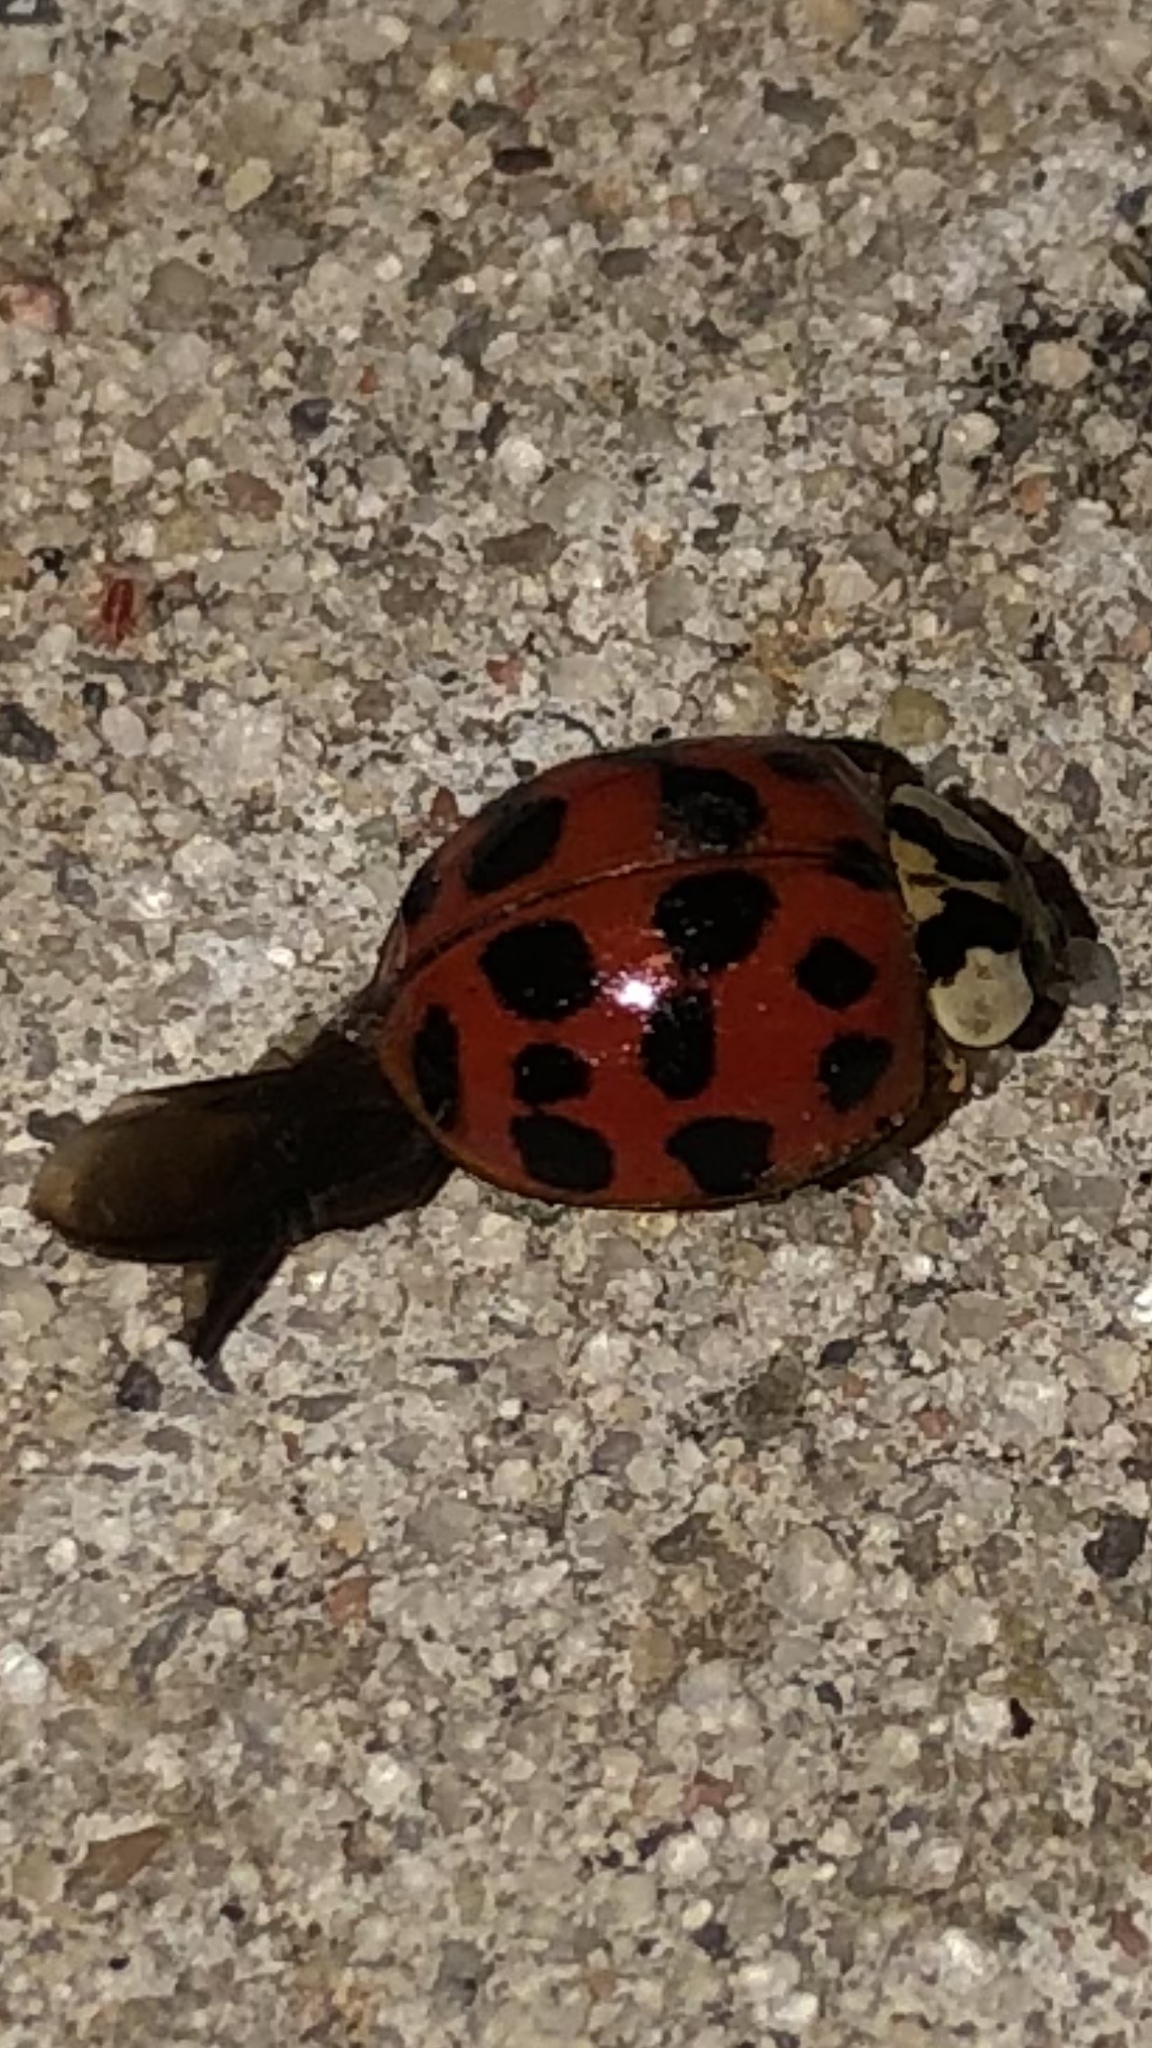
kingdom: Animalia
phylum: Arthropoda
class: Insecta
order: Coleoptera
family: Coccinellidae
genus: Harmonia
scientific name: Harmonia axyridis
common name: Harlequin ladybird
